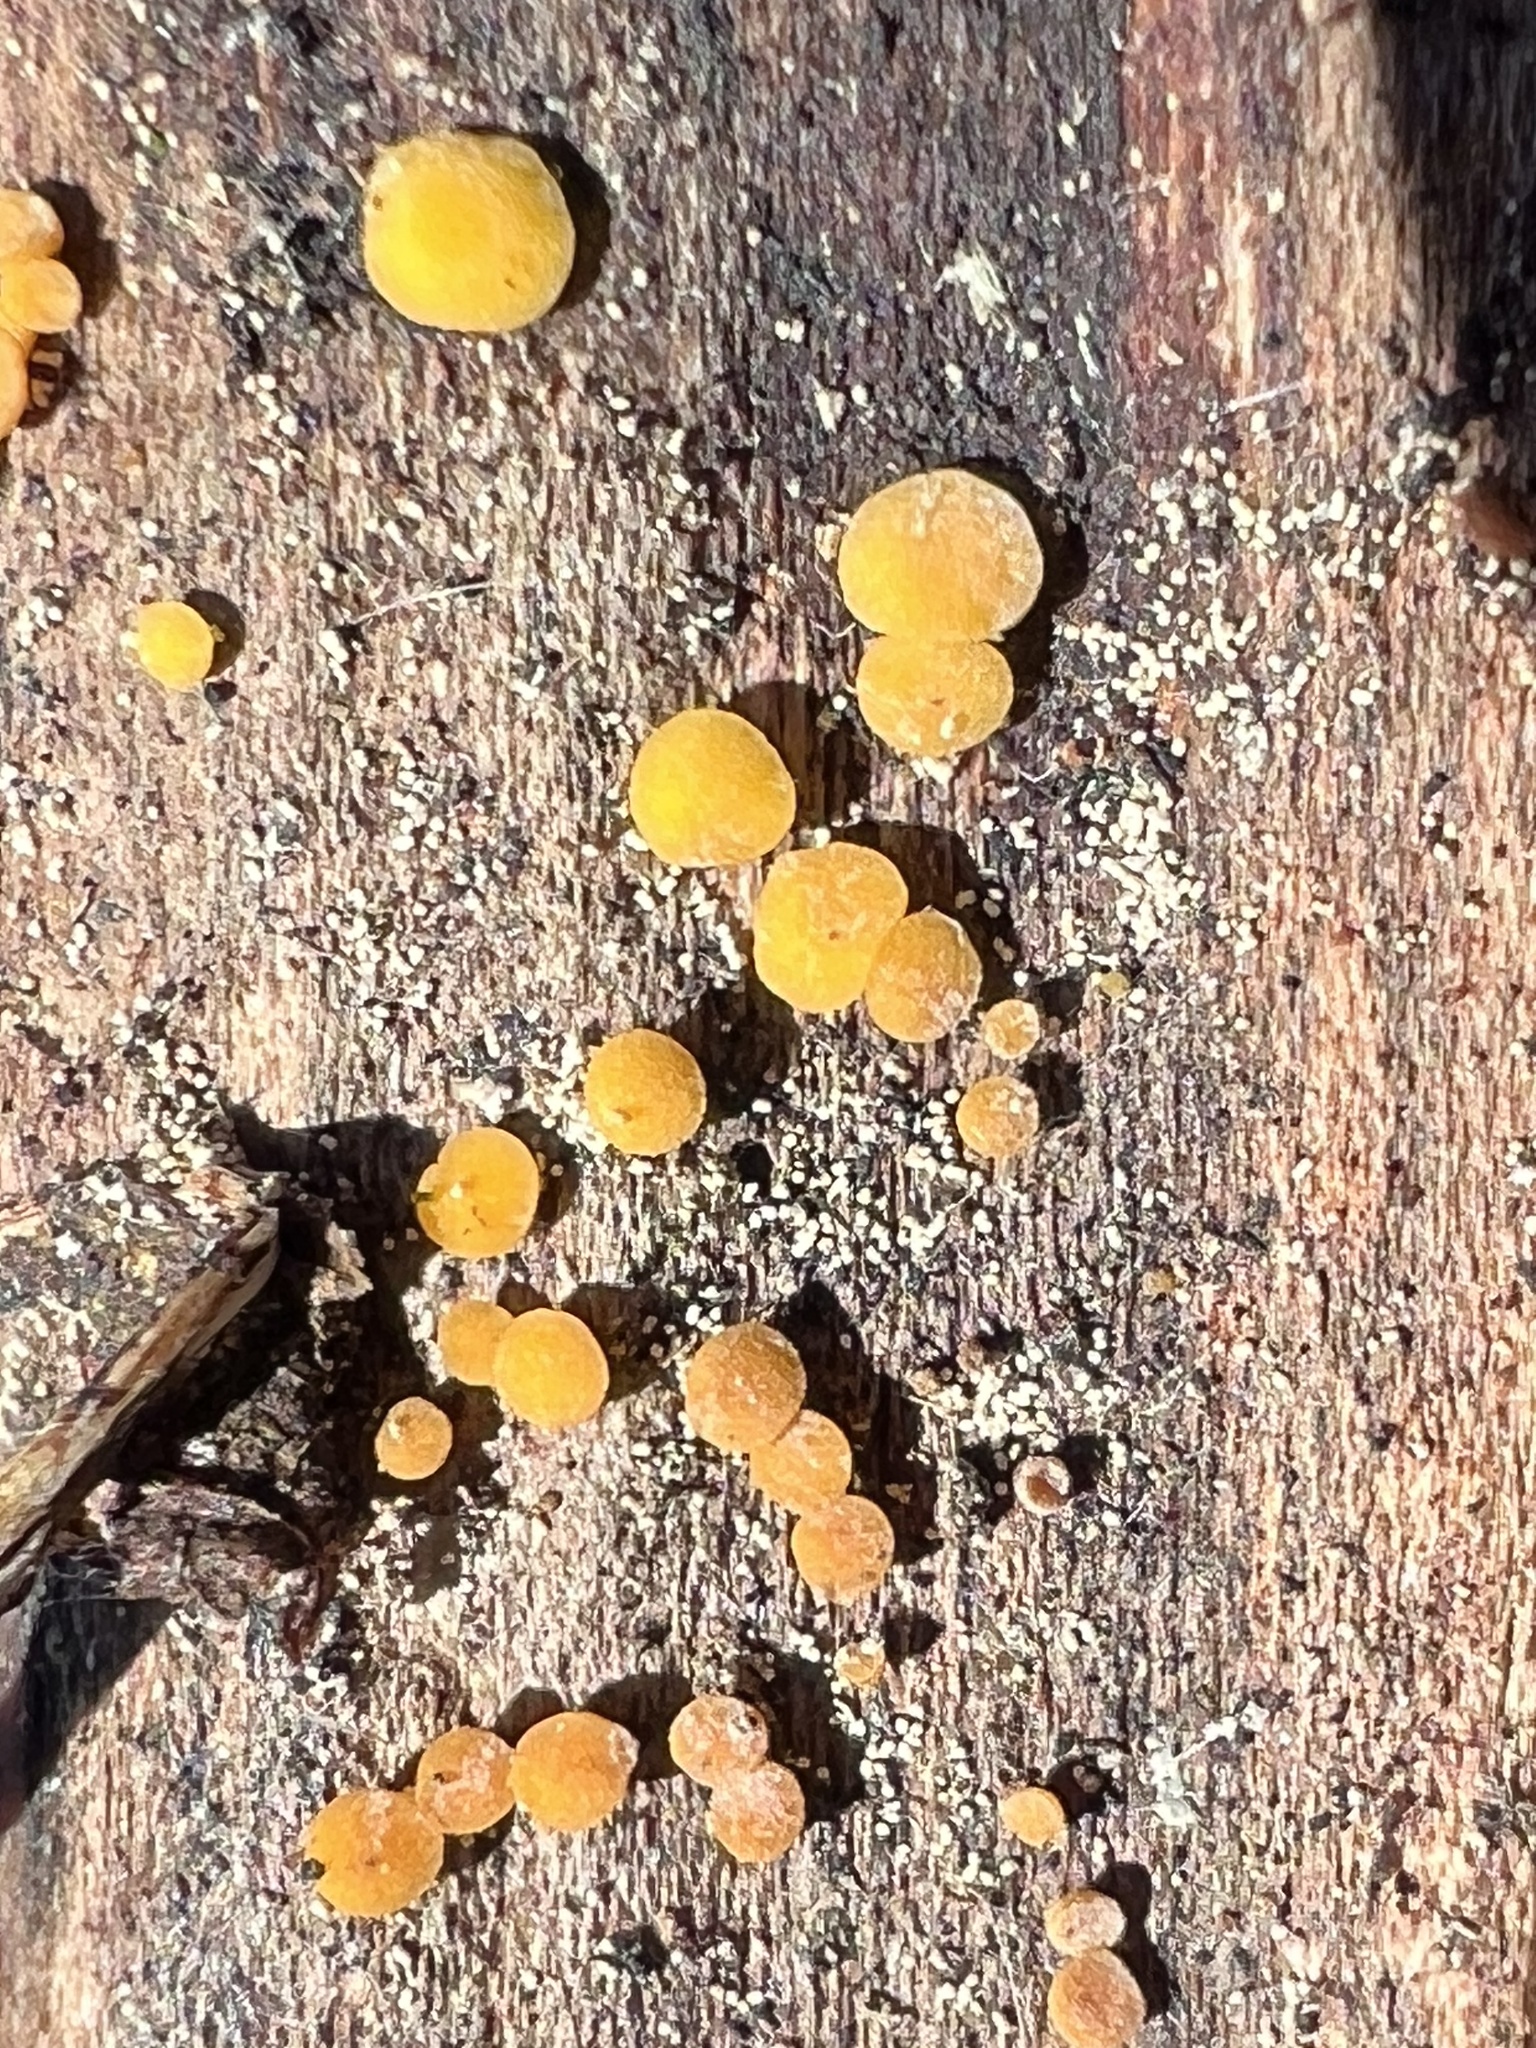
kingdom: Fungi
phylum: Ascomycota
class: Leotiomycetes
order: Helotiales
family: Pezizellaceae
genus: Calycina
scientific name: Calycina citrina
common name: Yellow fairy cups
